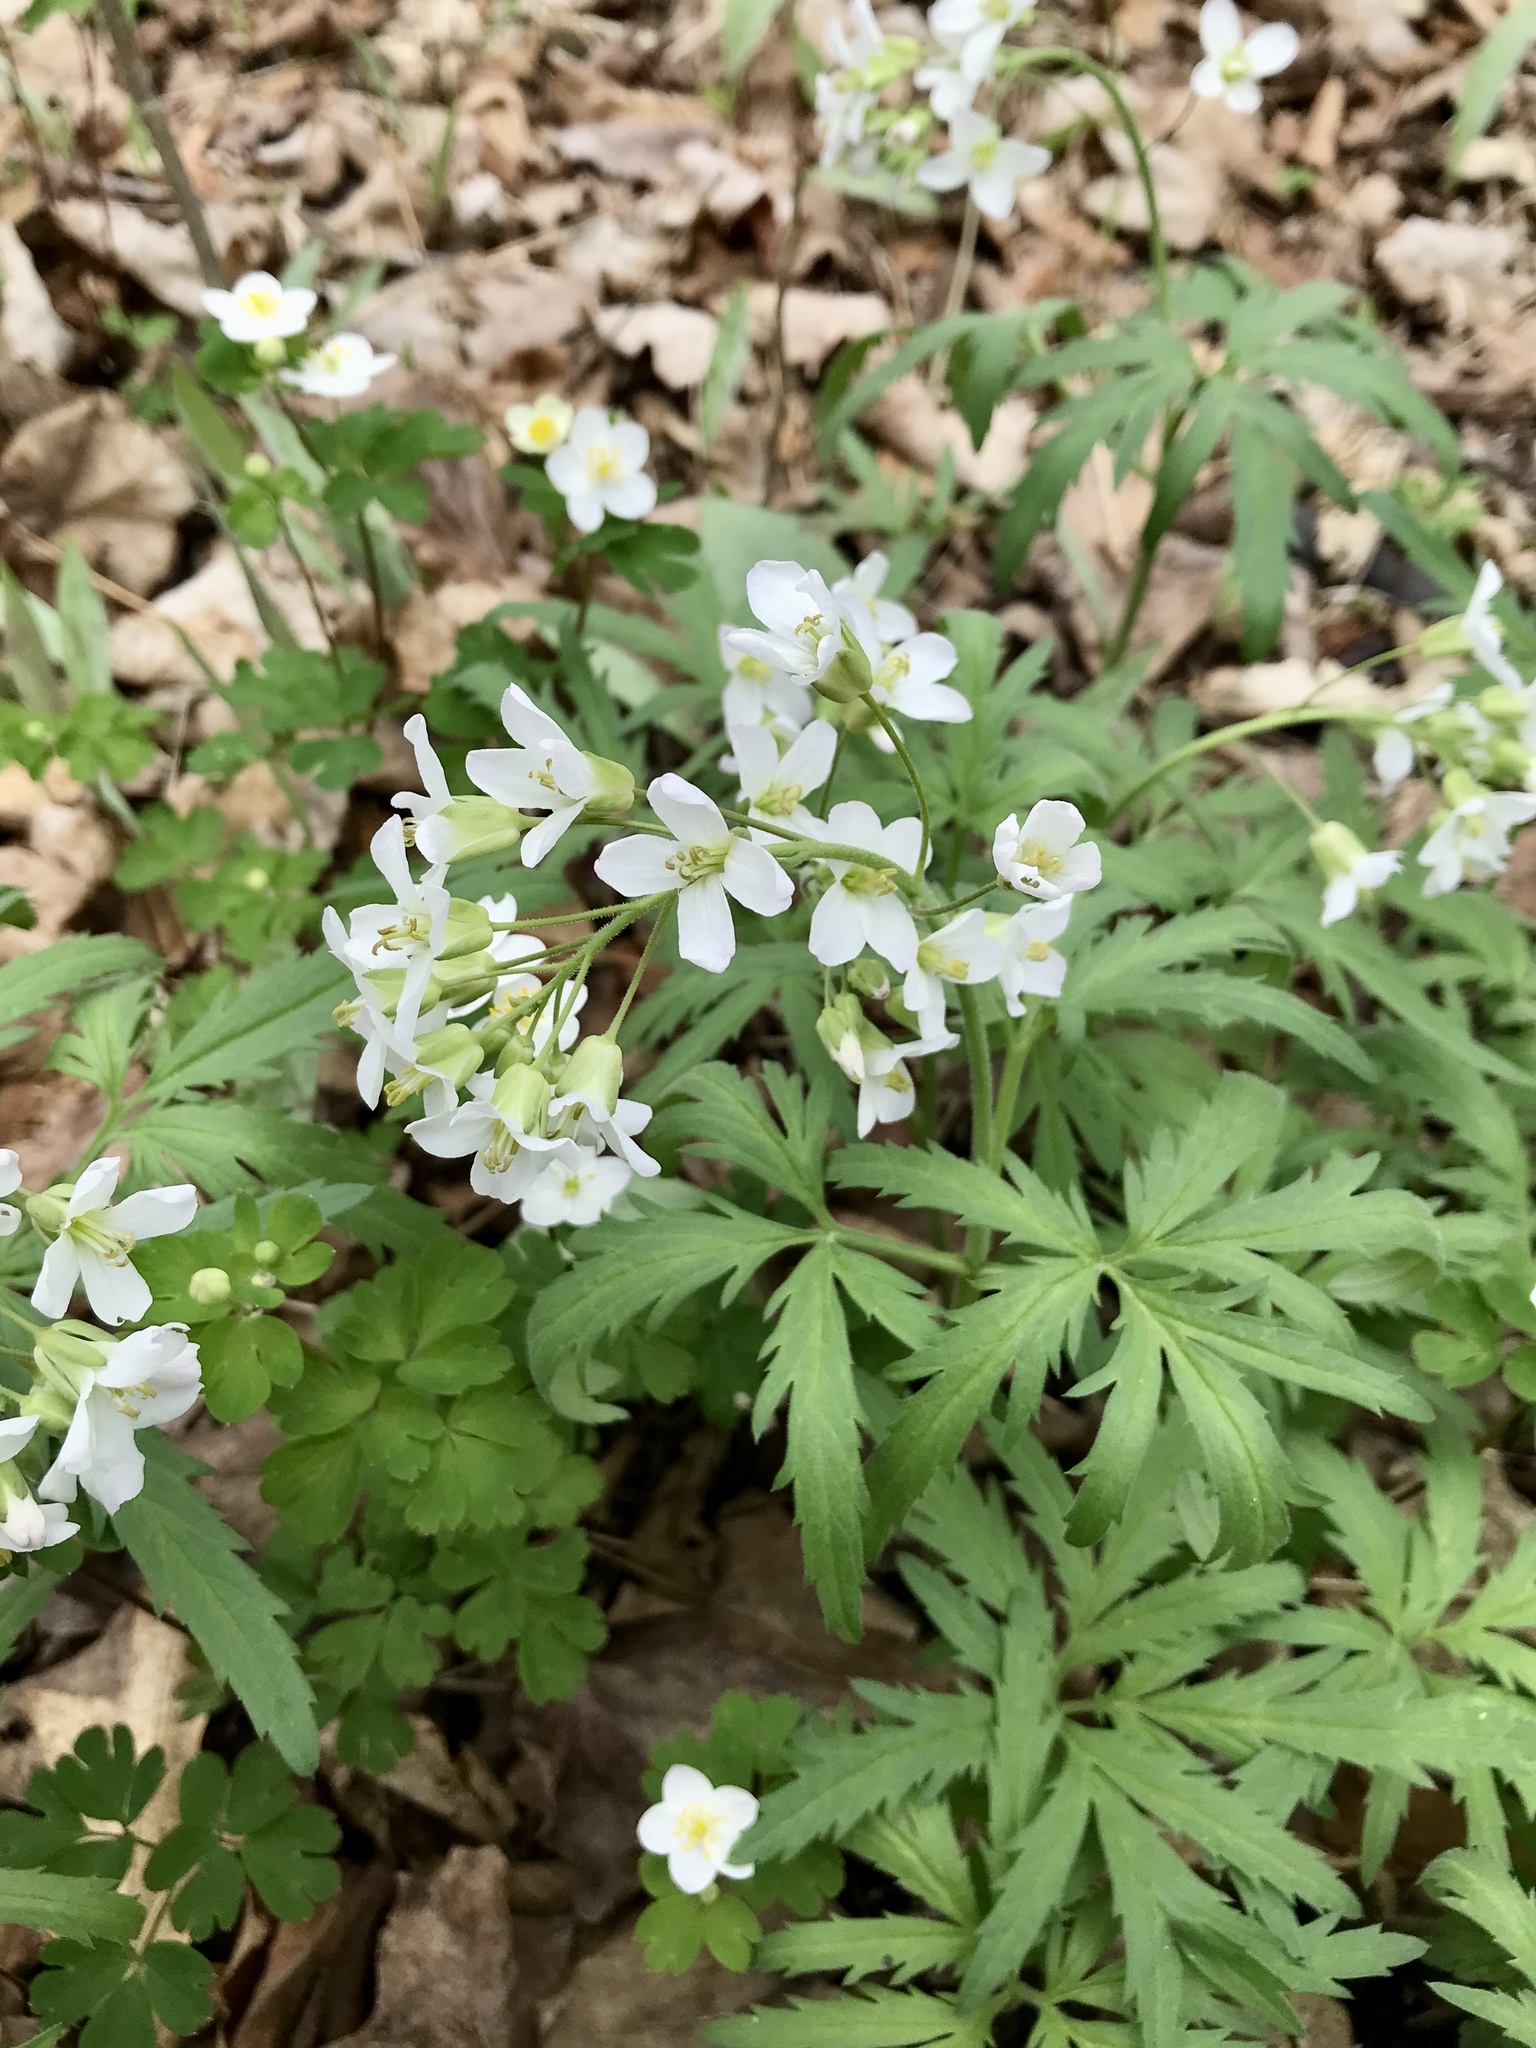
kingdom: Plantae
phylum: Tracheophyta
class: Magnoliopsida
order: Brassicales
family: Brassicaceae
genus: Cardamine
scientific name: Cardamine concatenata
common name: Cut-leaf toothcup
